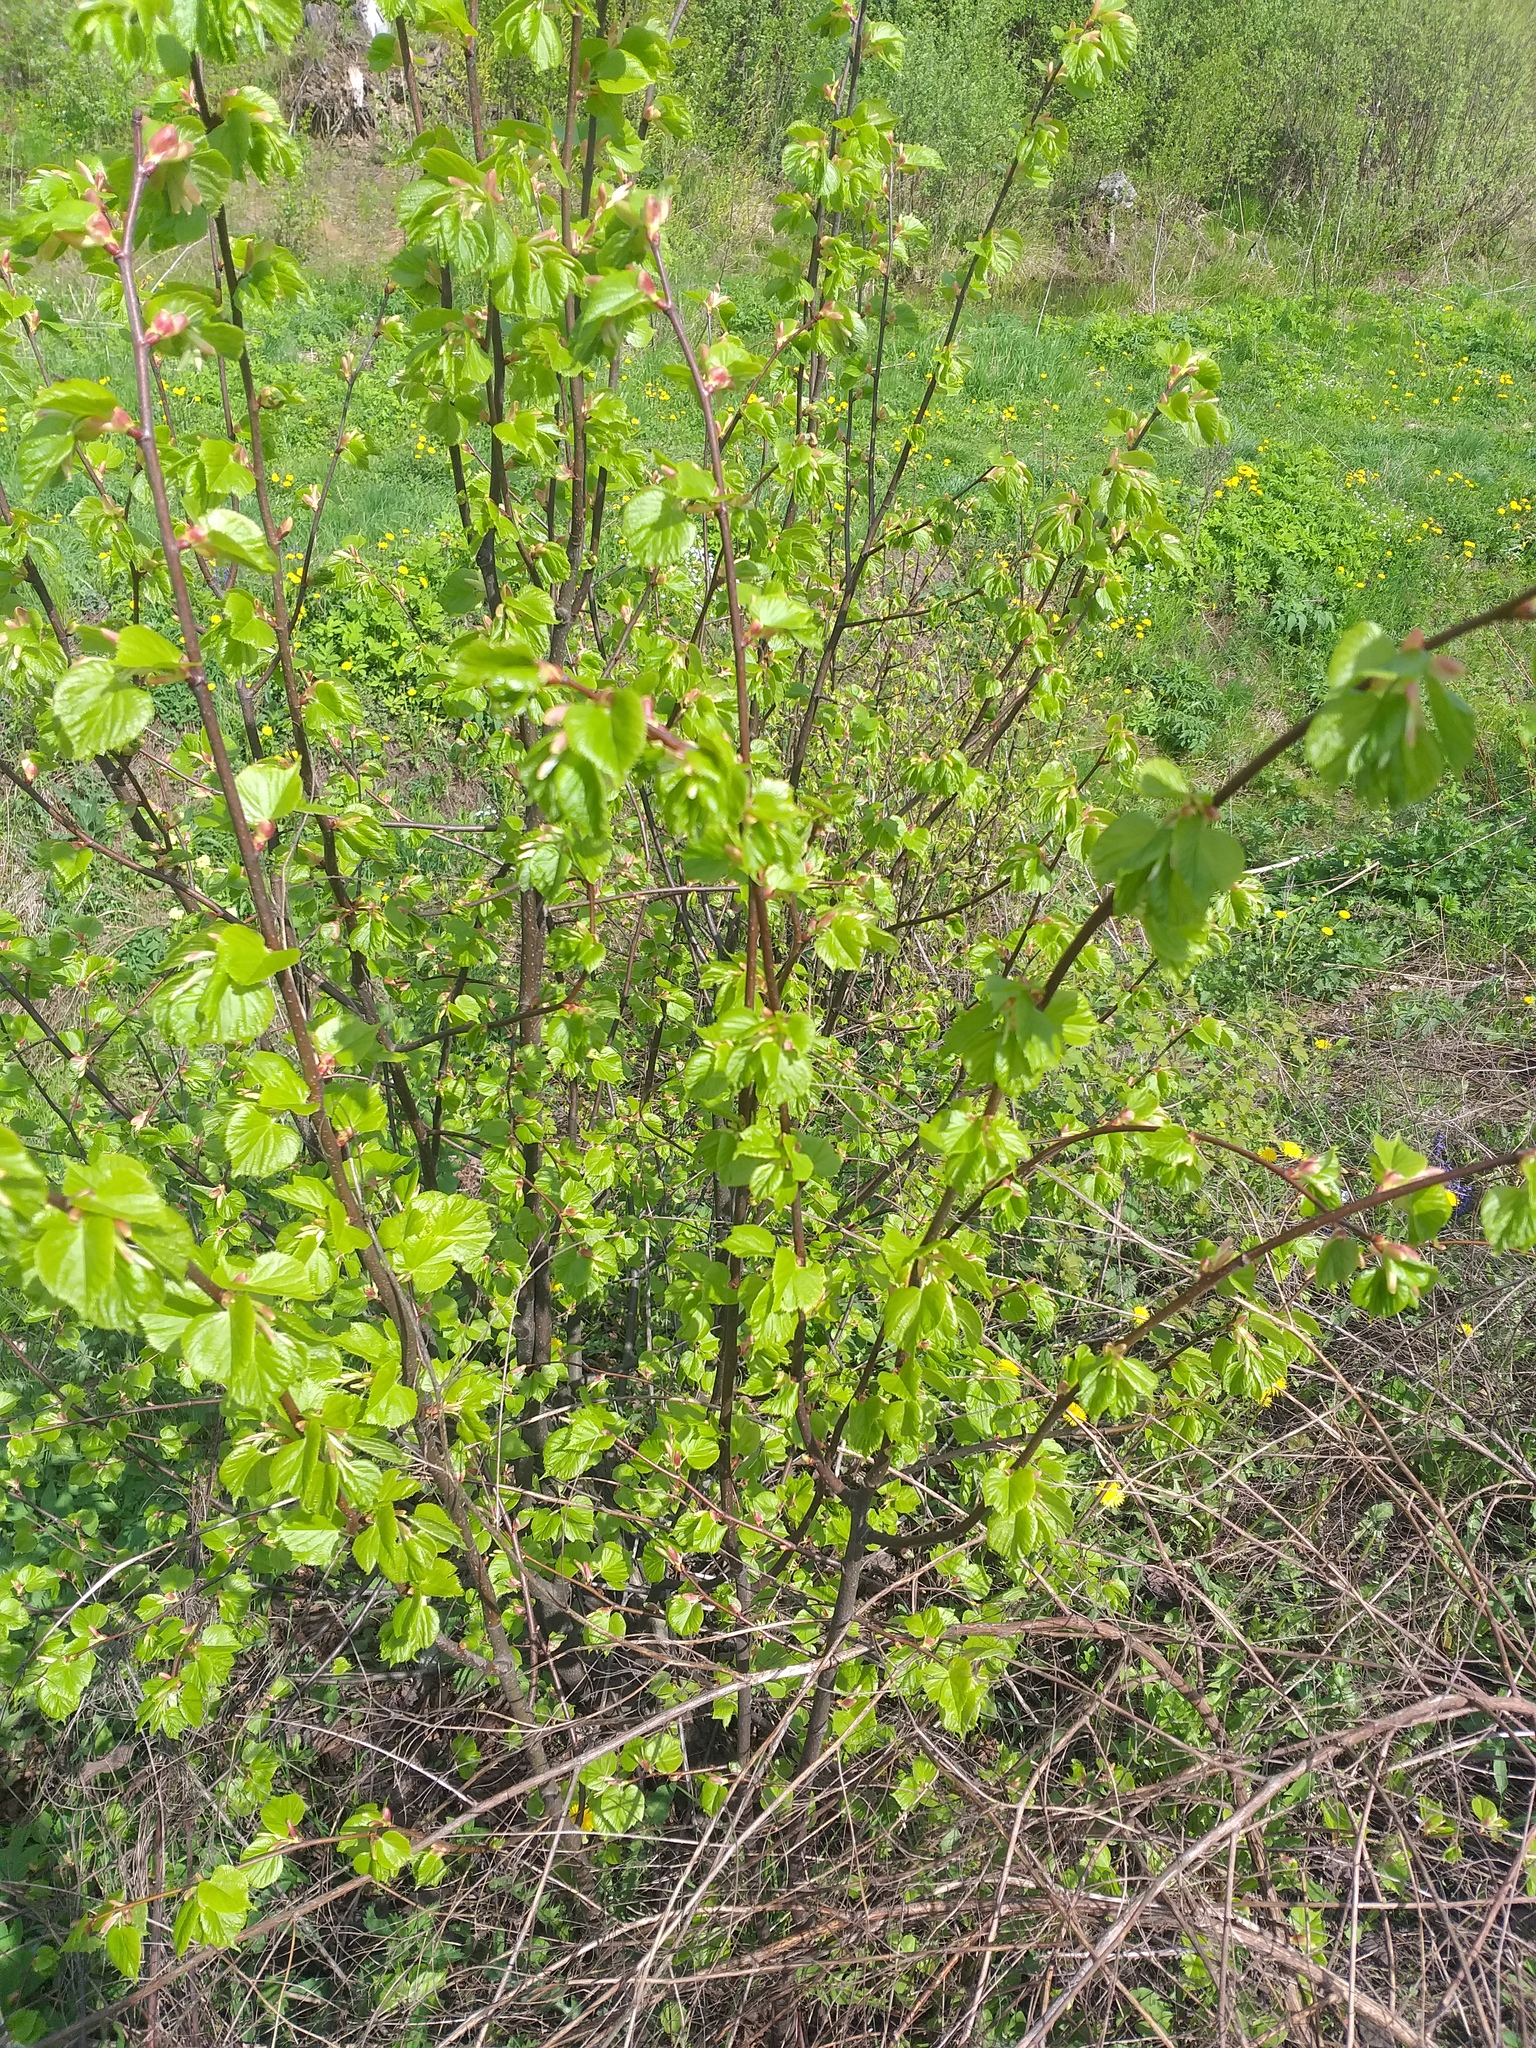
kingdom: Plantae
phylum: Tracheophyta
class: Magnoliopsida
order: Malvales
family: Malvaceae
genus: Tilia
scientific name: Tilia cordata
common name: Small-leaved lime
